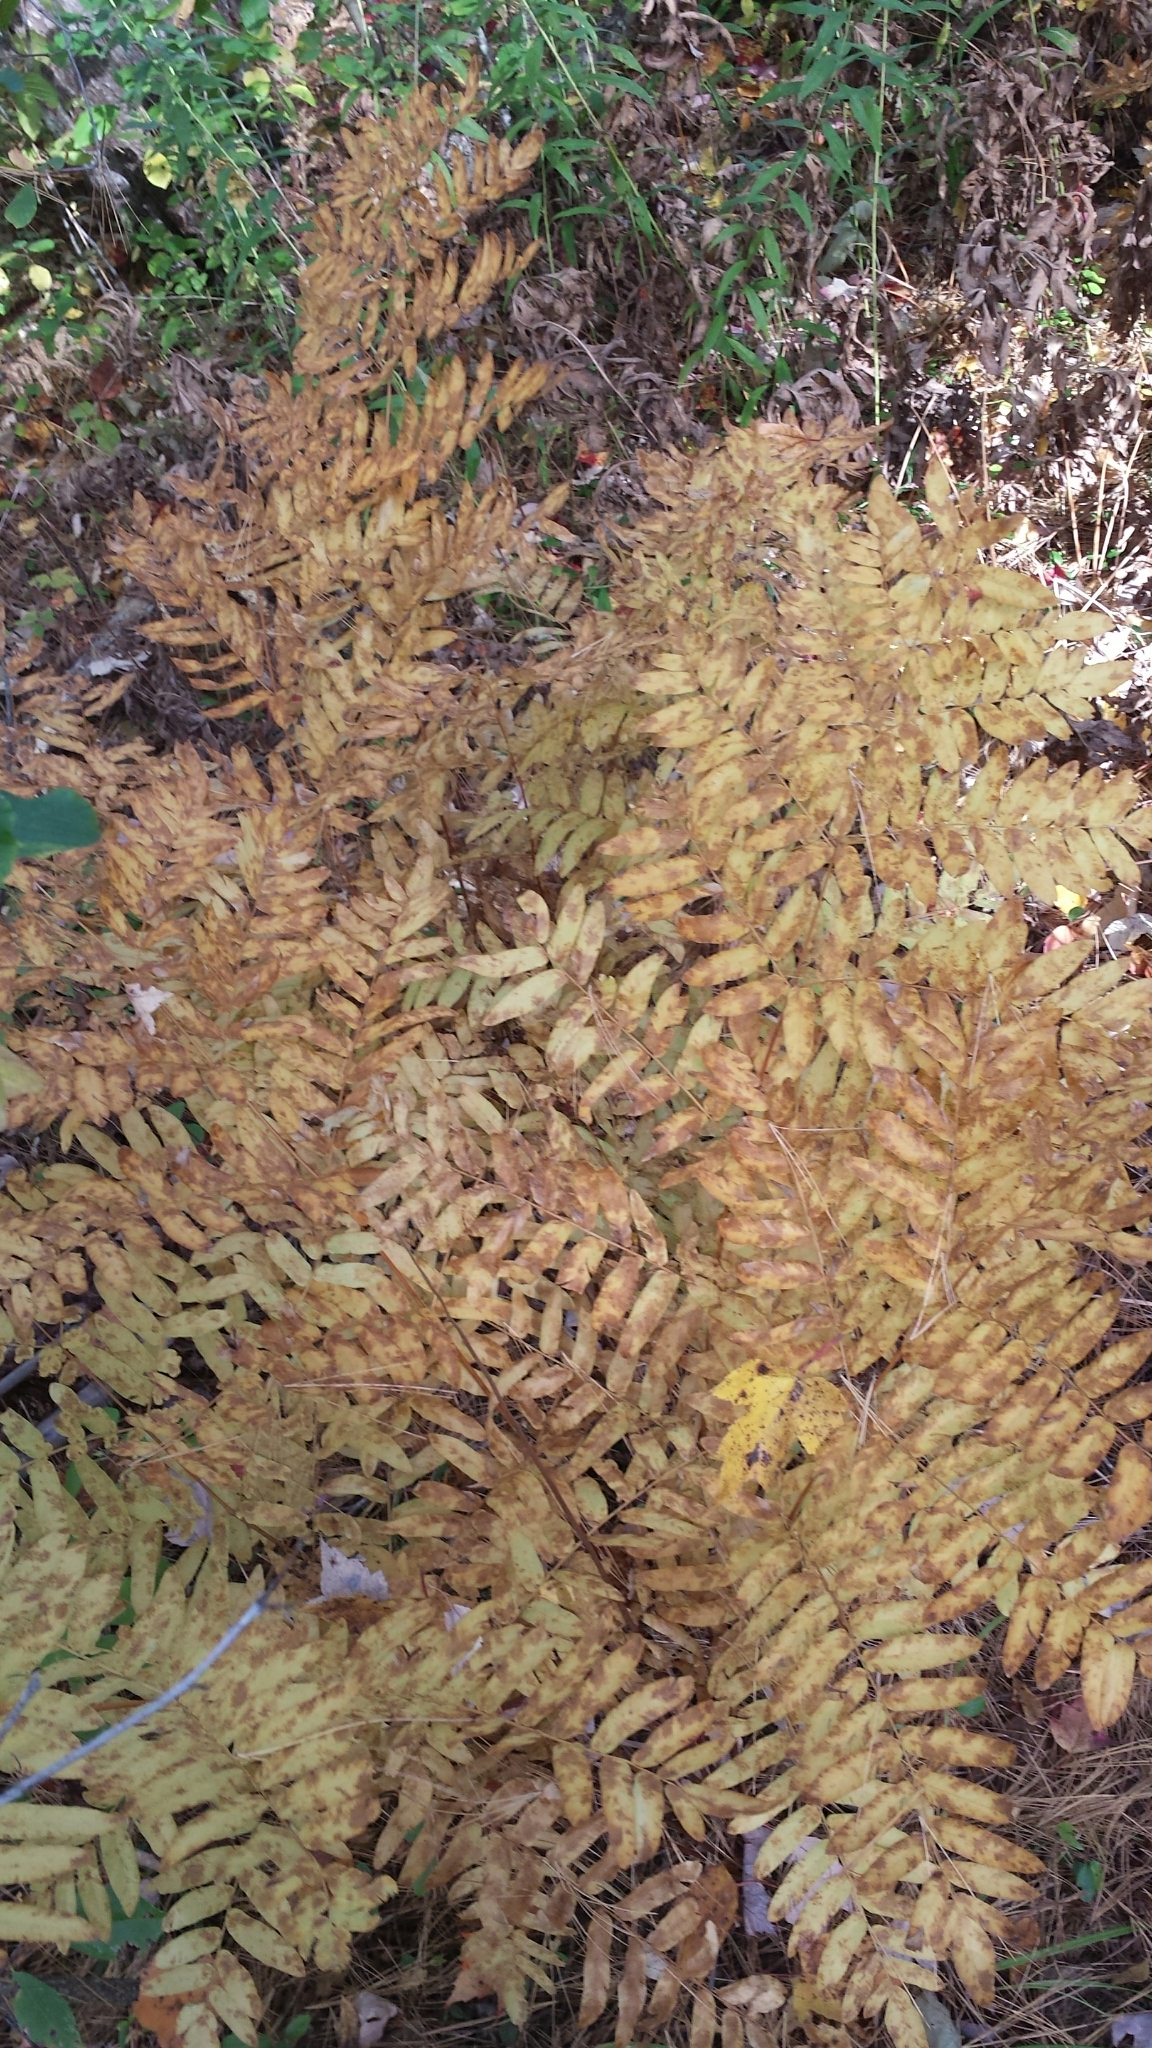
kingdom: Plantae
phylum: Tracheophyta
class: Polypodiopsida
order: Osmundales
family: Osmundaceae
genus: Osmunda
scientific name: Osmunda spectabilis
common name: American royal fern
